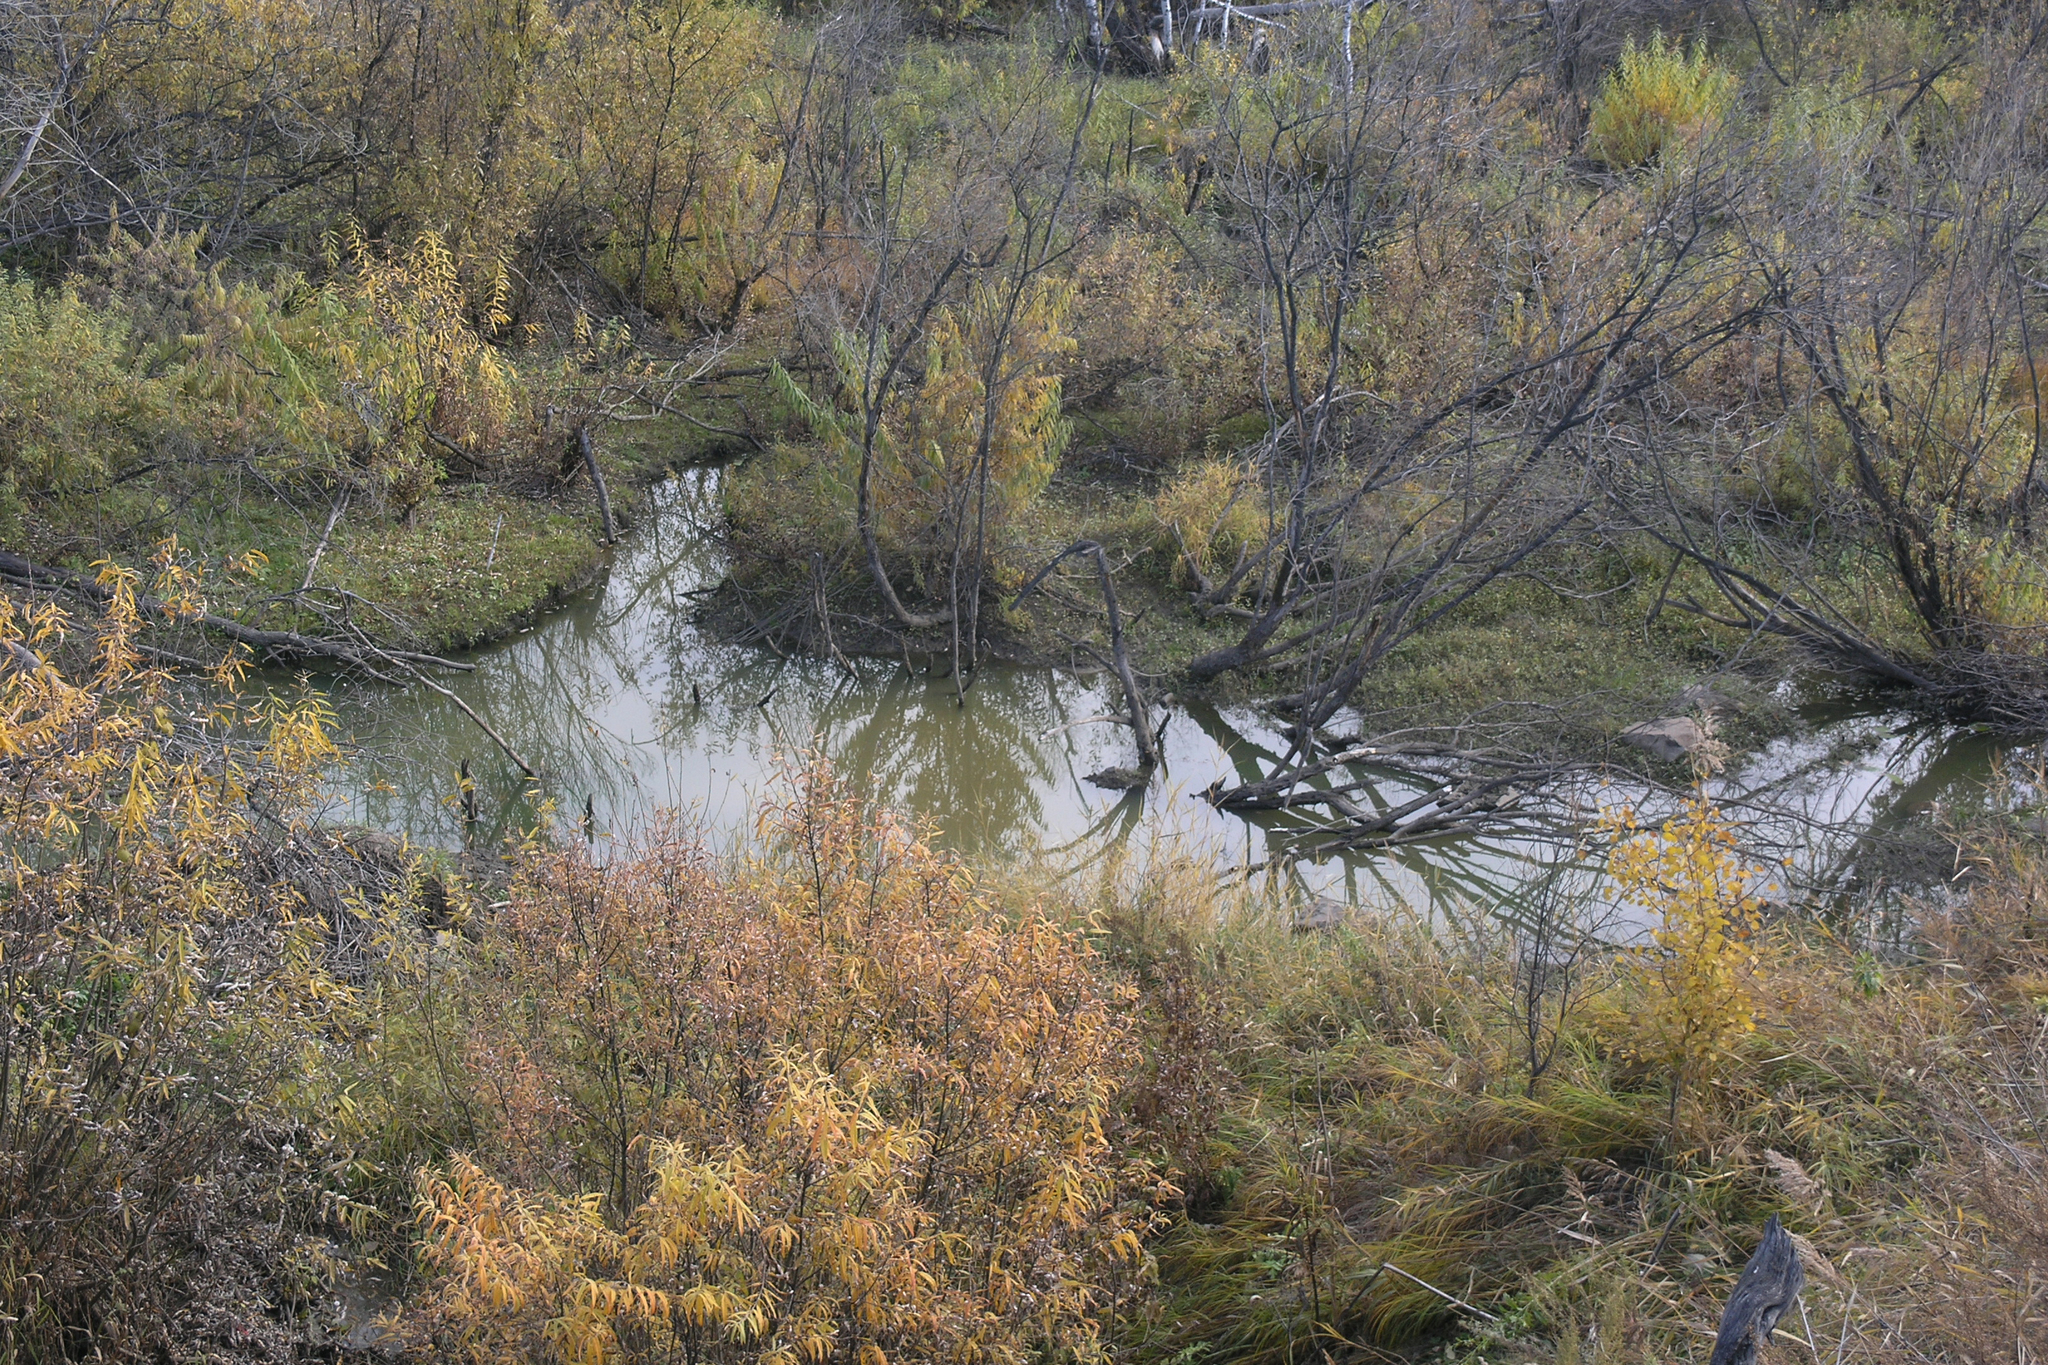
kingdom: Animalia
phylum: Chordata
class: Mammalia
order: Rodentia
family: Castoridae
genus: Castor
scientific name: Castor fiber
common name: Eurasian beaver
